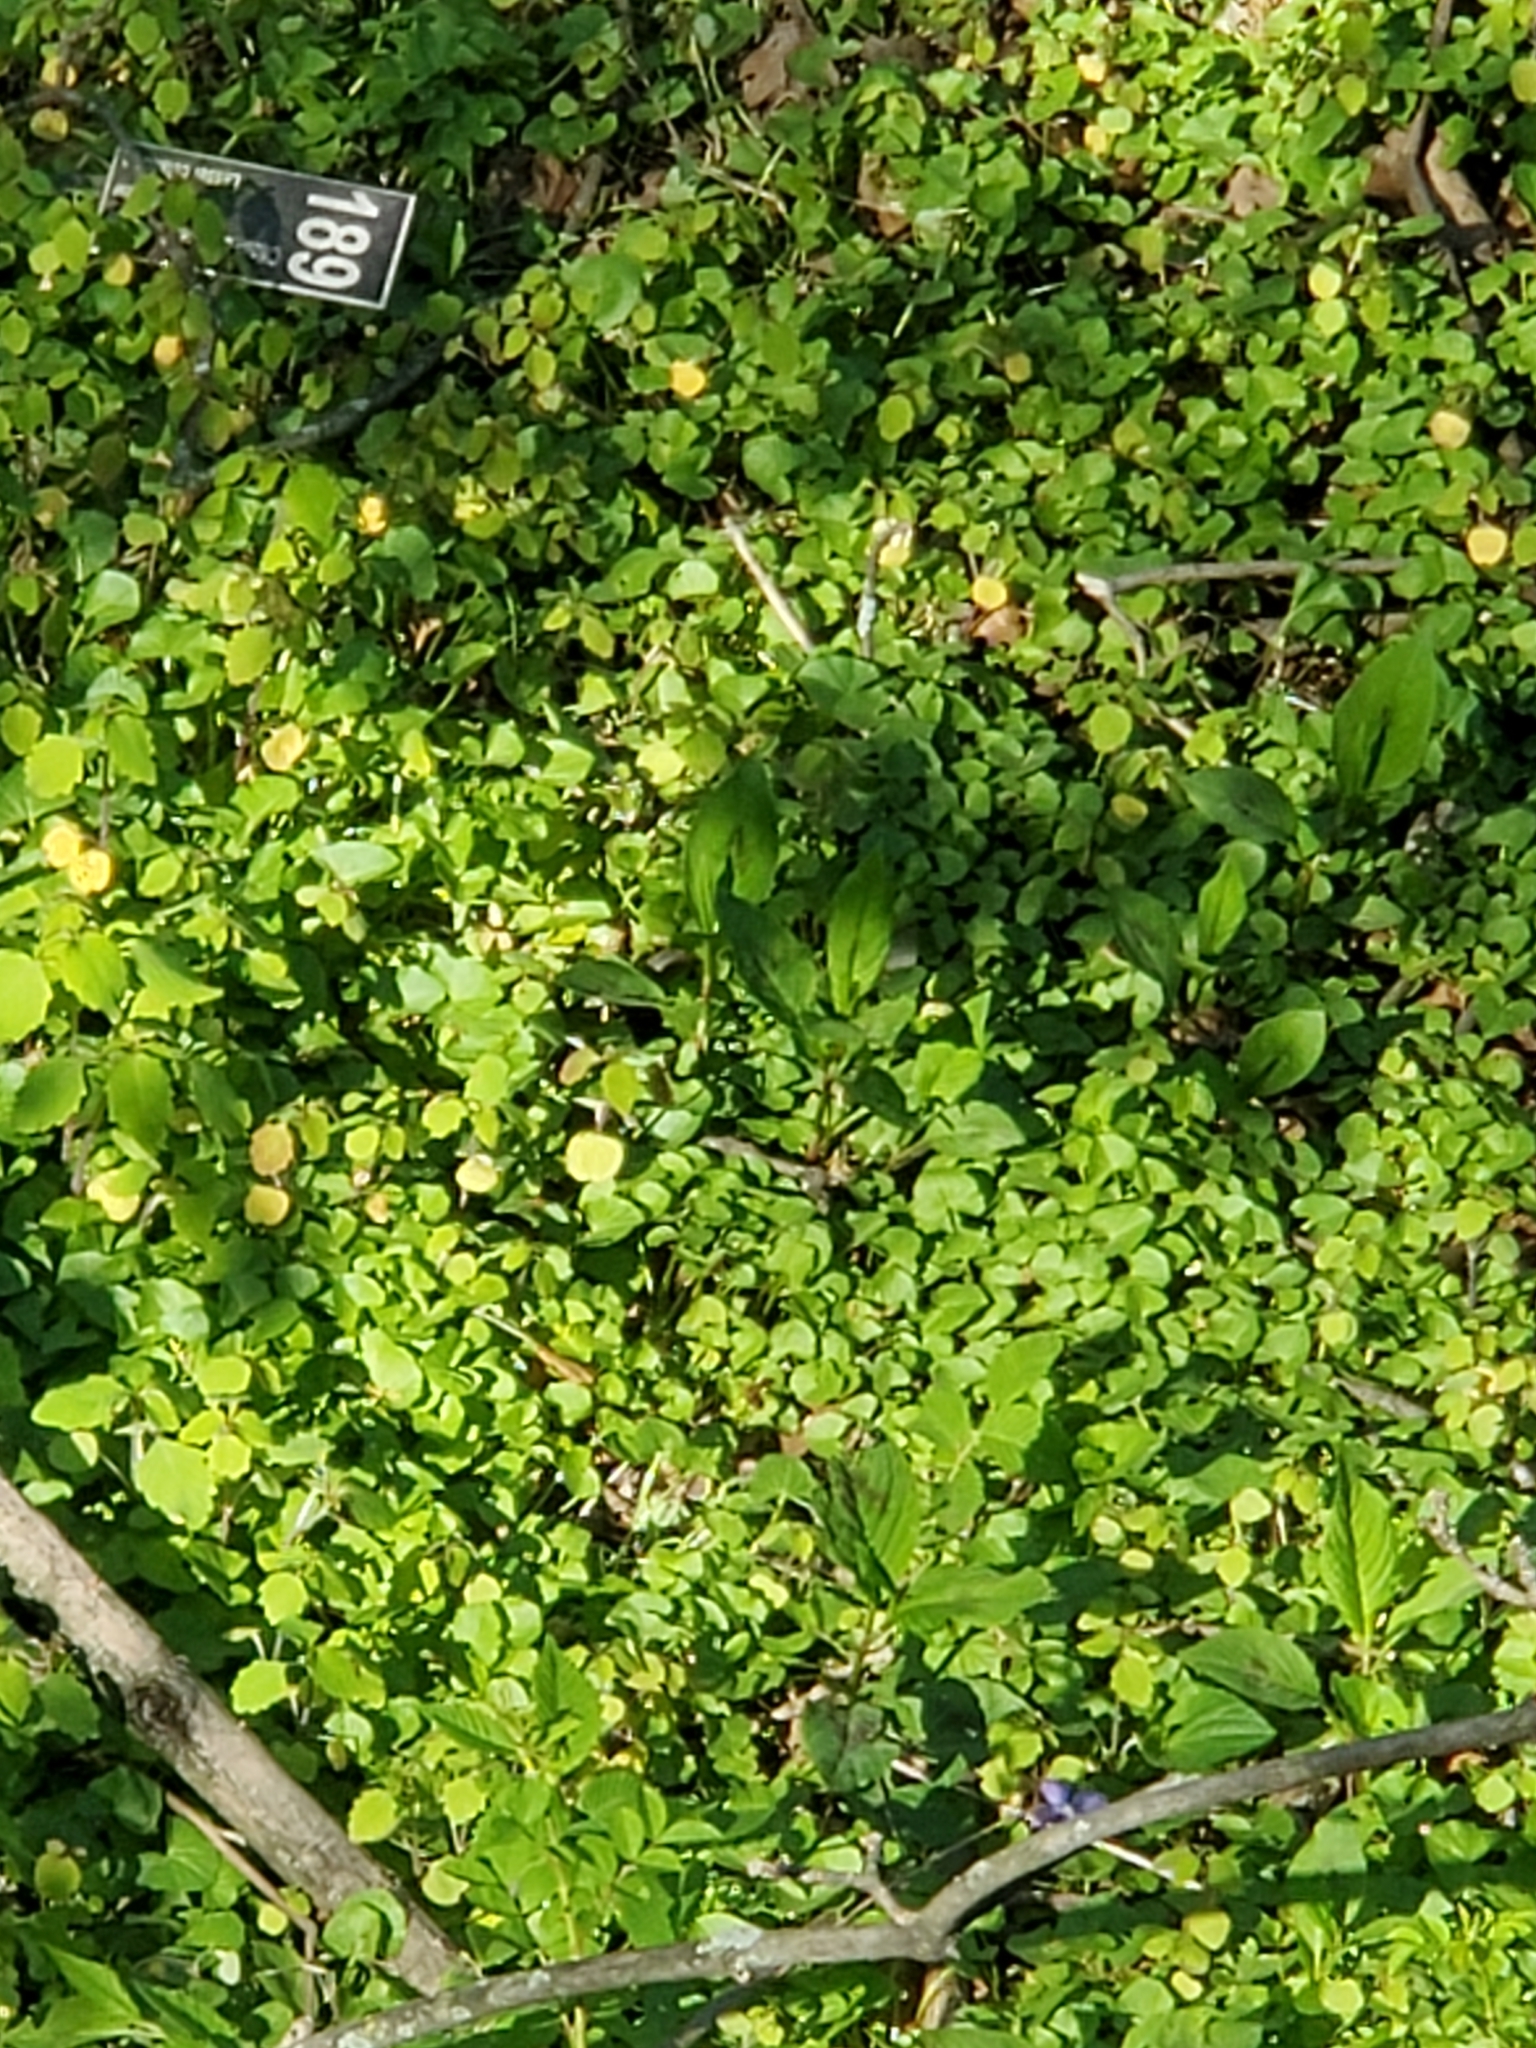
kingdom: Plantae
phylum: Tracheophyta
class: Magnoliopsida
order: Ranunculales
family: Ranunculaceae
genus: Ficaria
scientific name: Ficaria verna
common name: Lesser celandine
